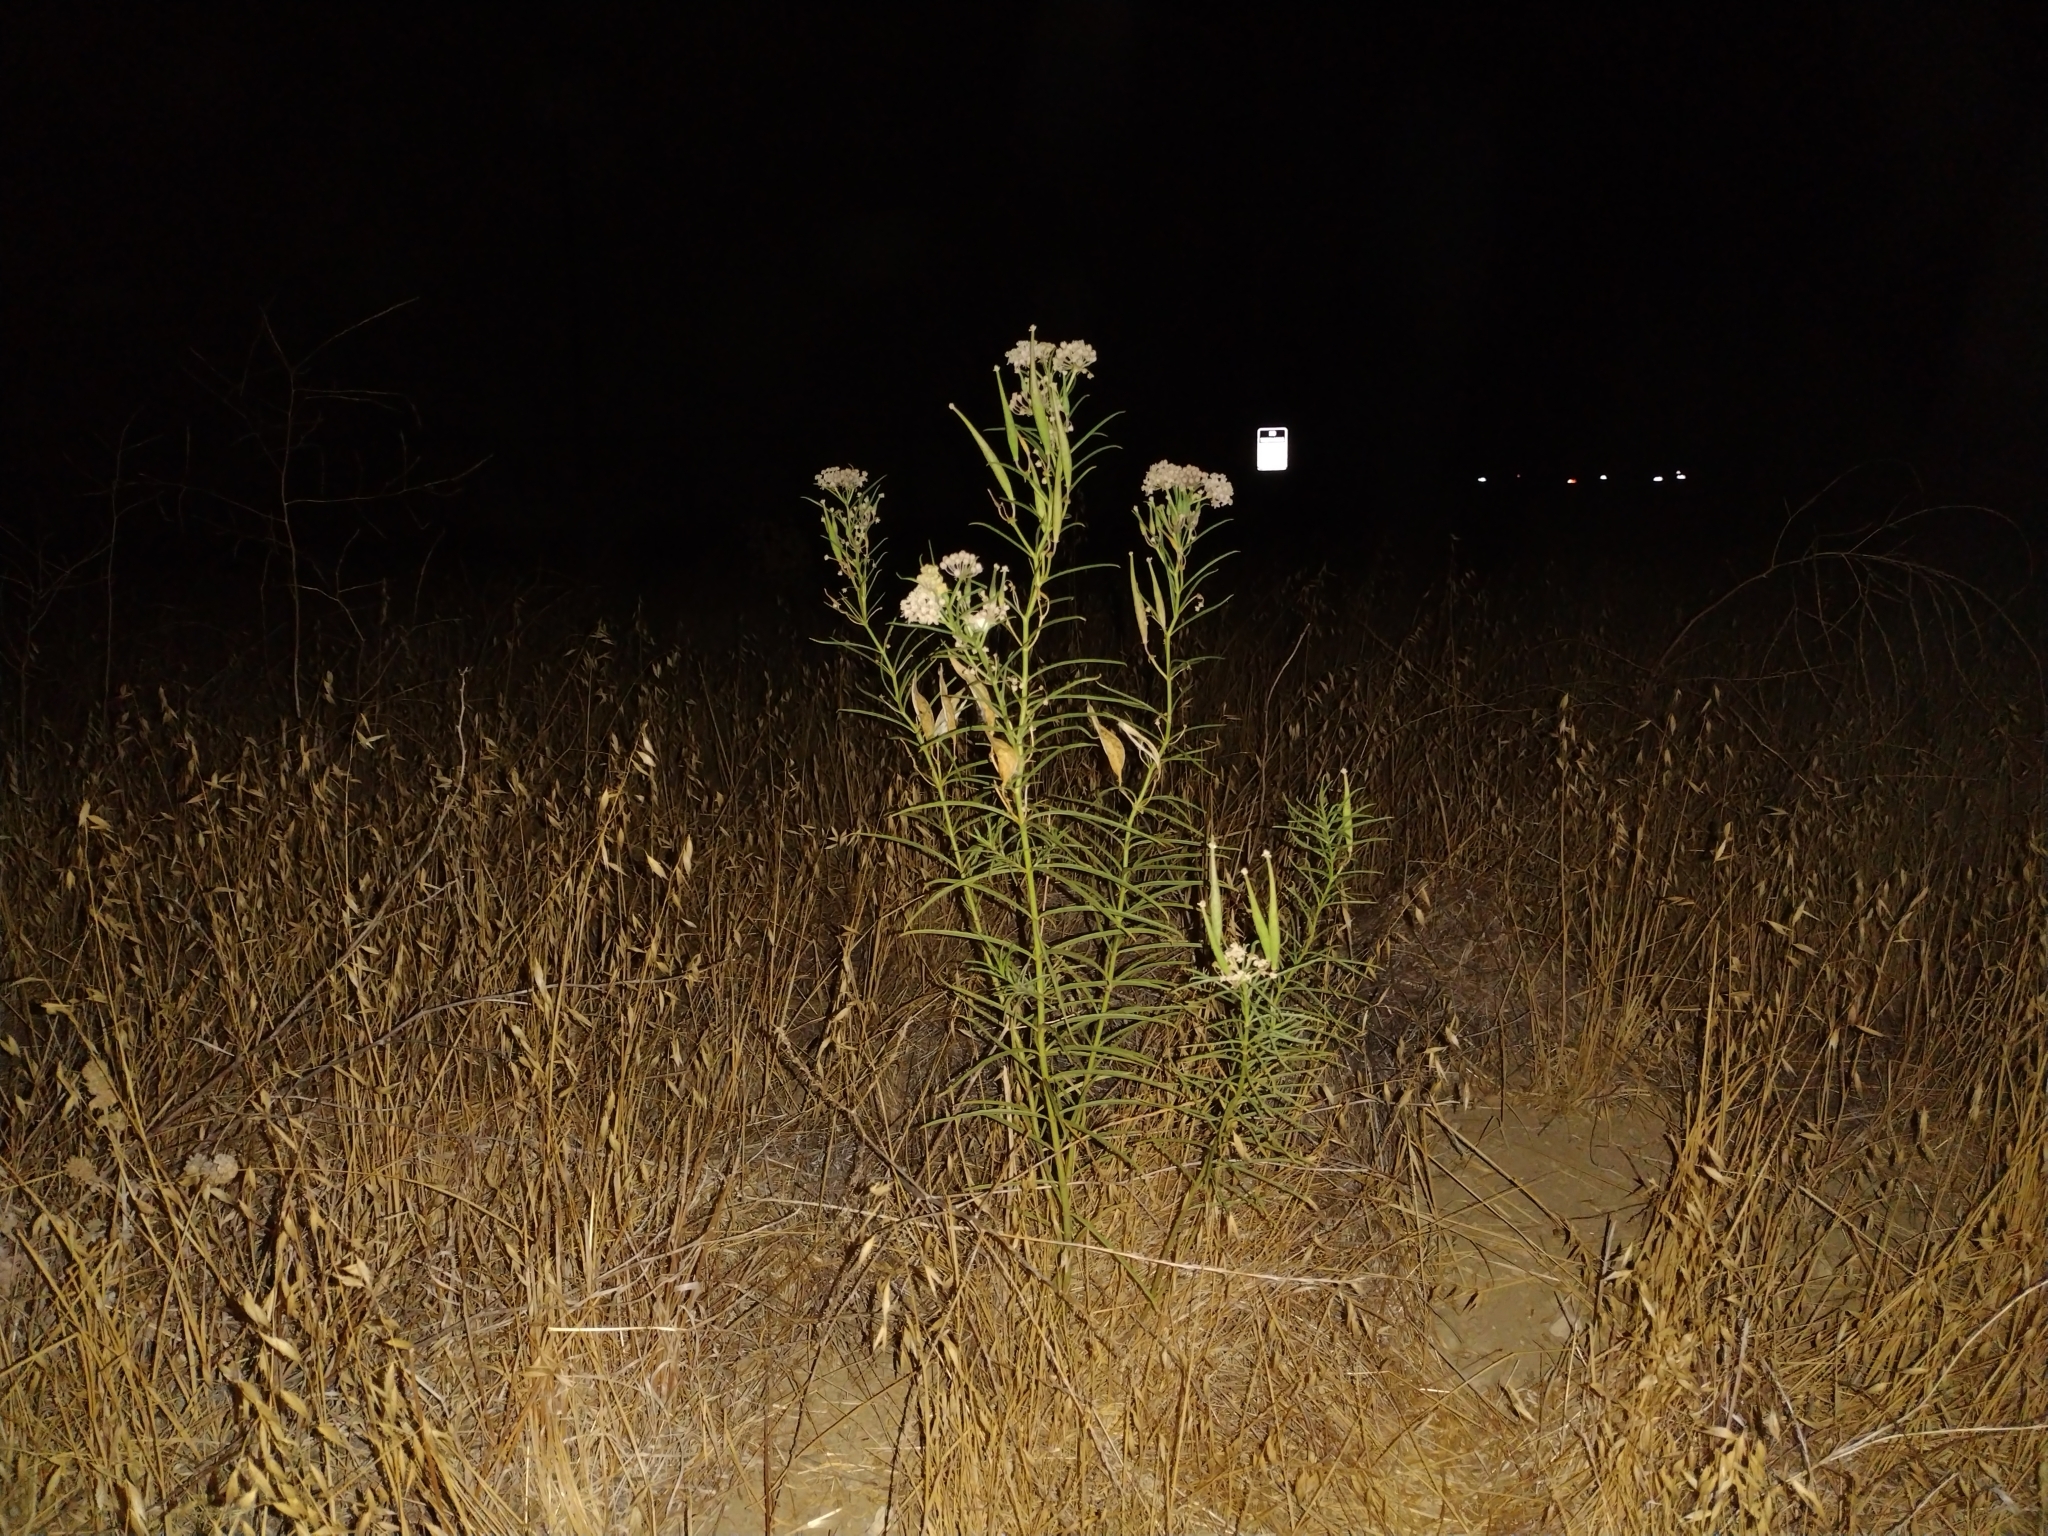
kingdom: Plantae
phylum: Tracheophyta
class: Magnoliopsida
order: Gentianales
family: Apocynaceae
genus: Asclepias
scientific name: Asclepias fascicularis
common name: Mexican milkweed
